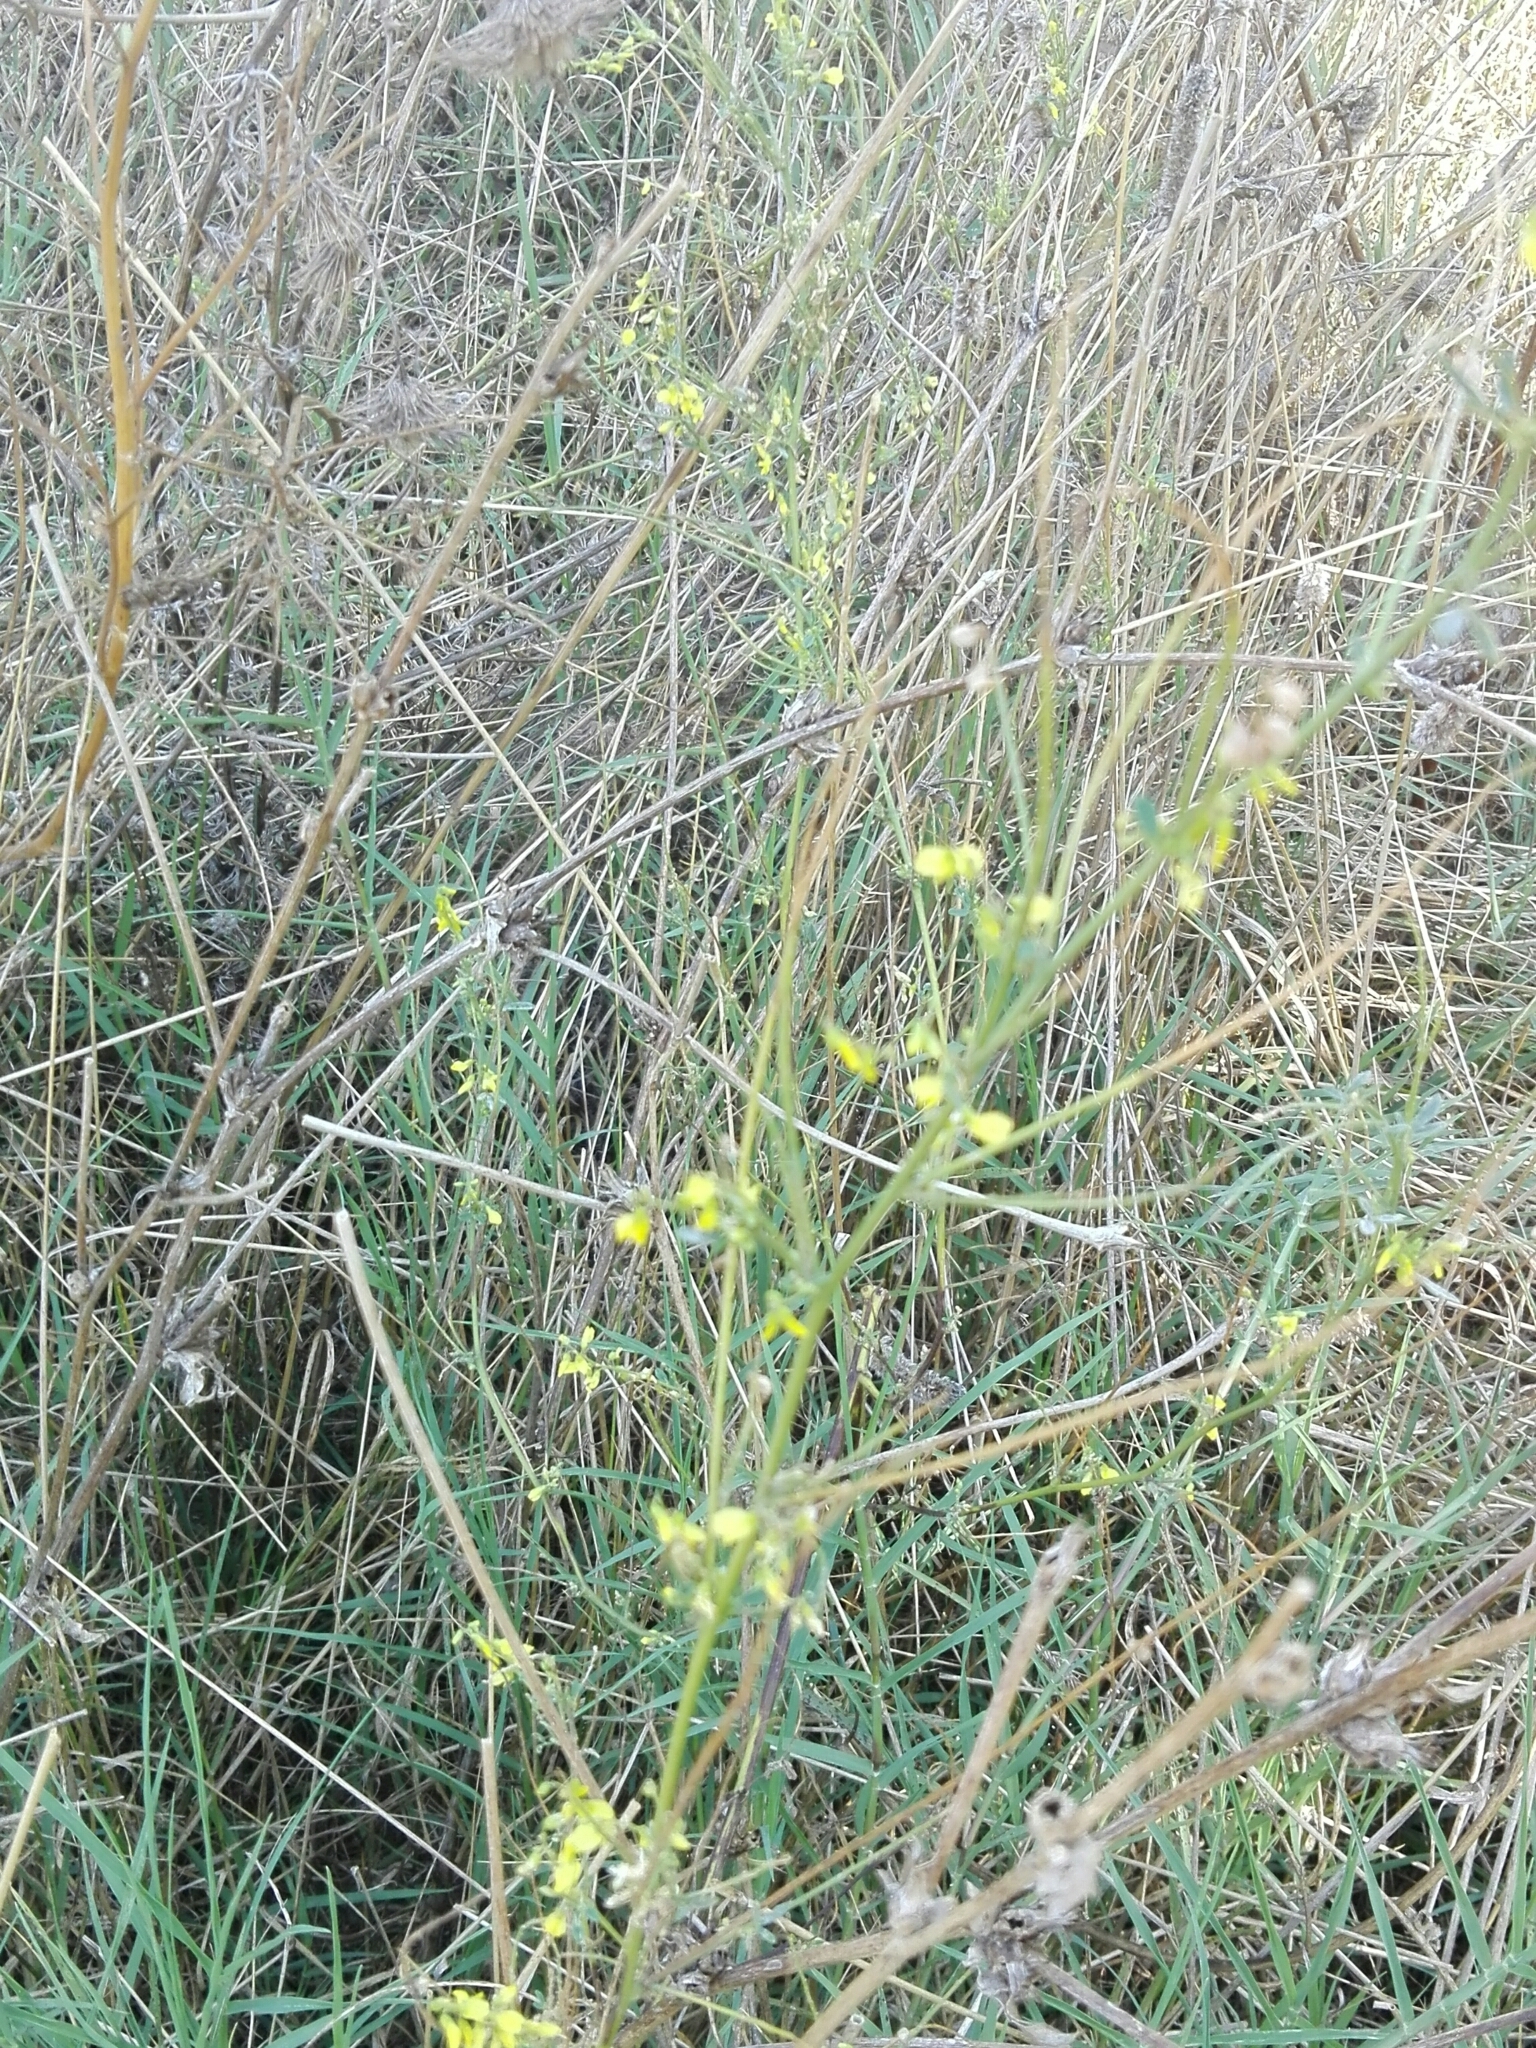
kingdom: Plantae
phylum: Tracheophyta
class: Magnoliopsida
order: Fabales
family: Fabaceae
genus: Melilotus
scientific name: Melilotus officinalis
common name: Sweetclover
